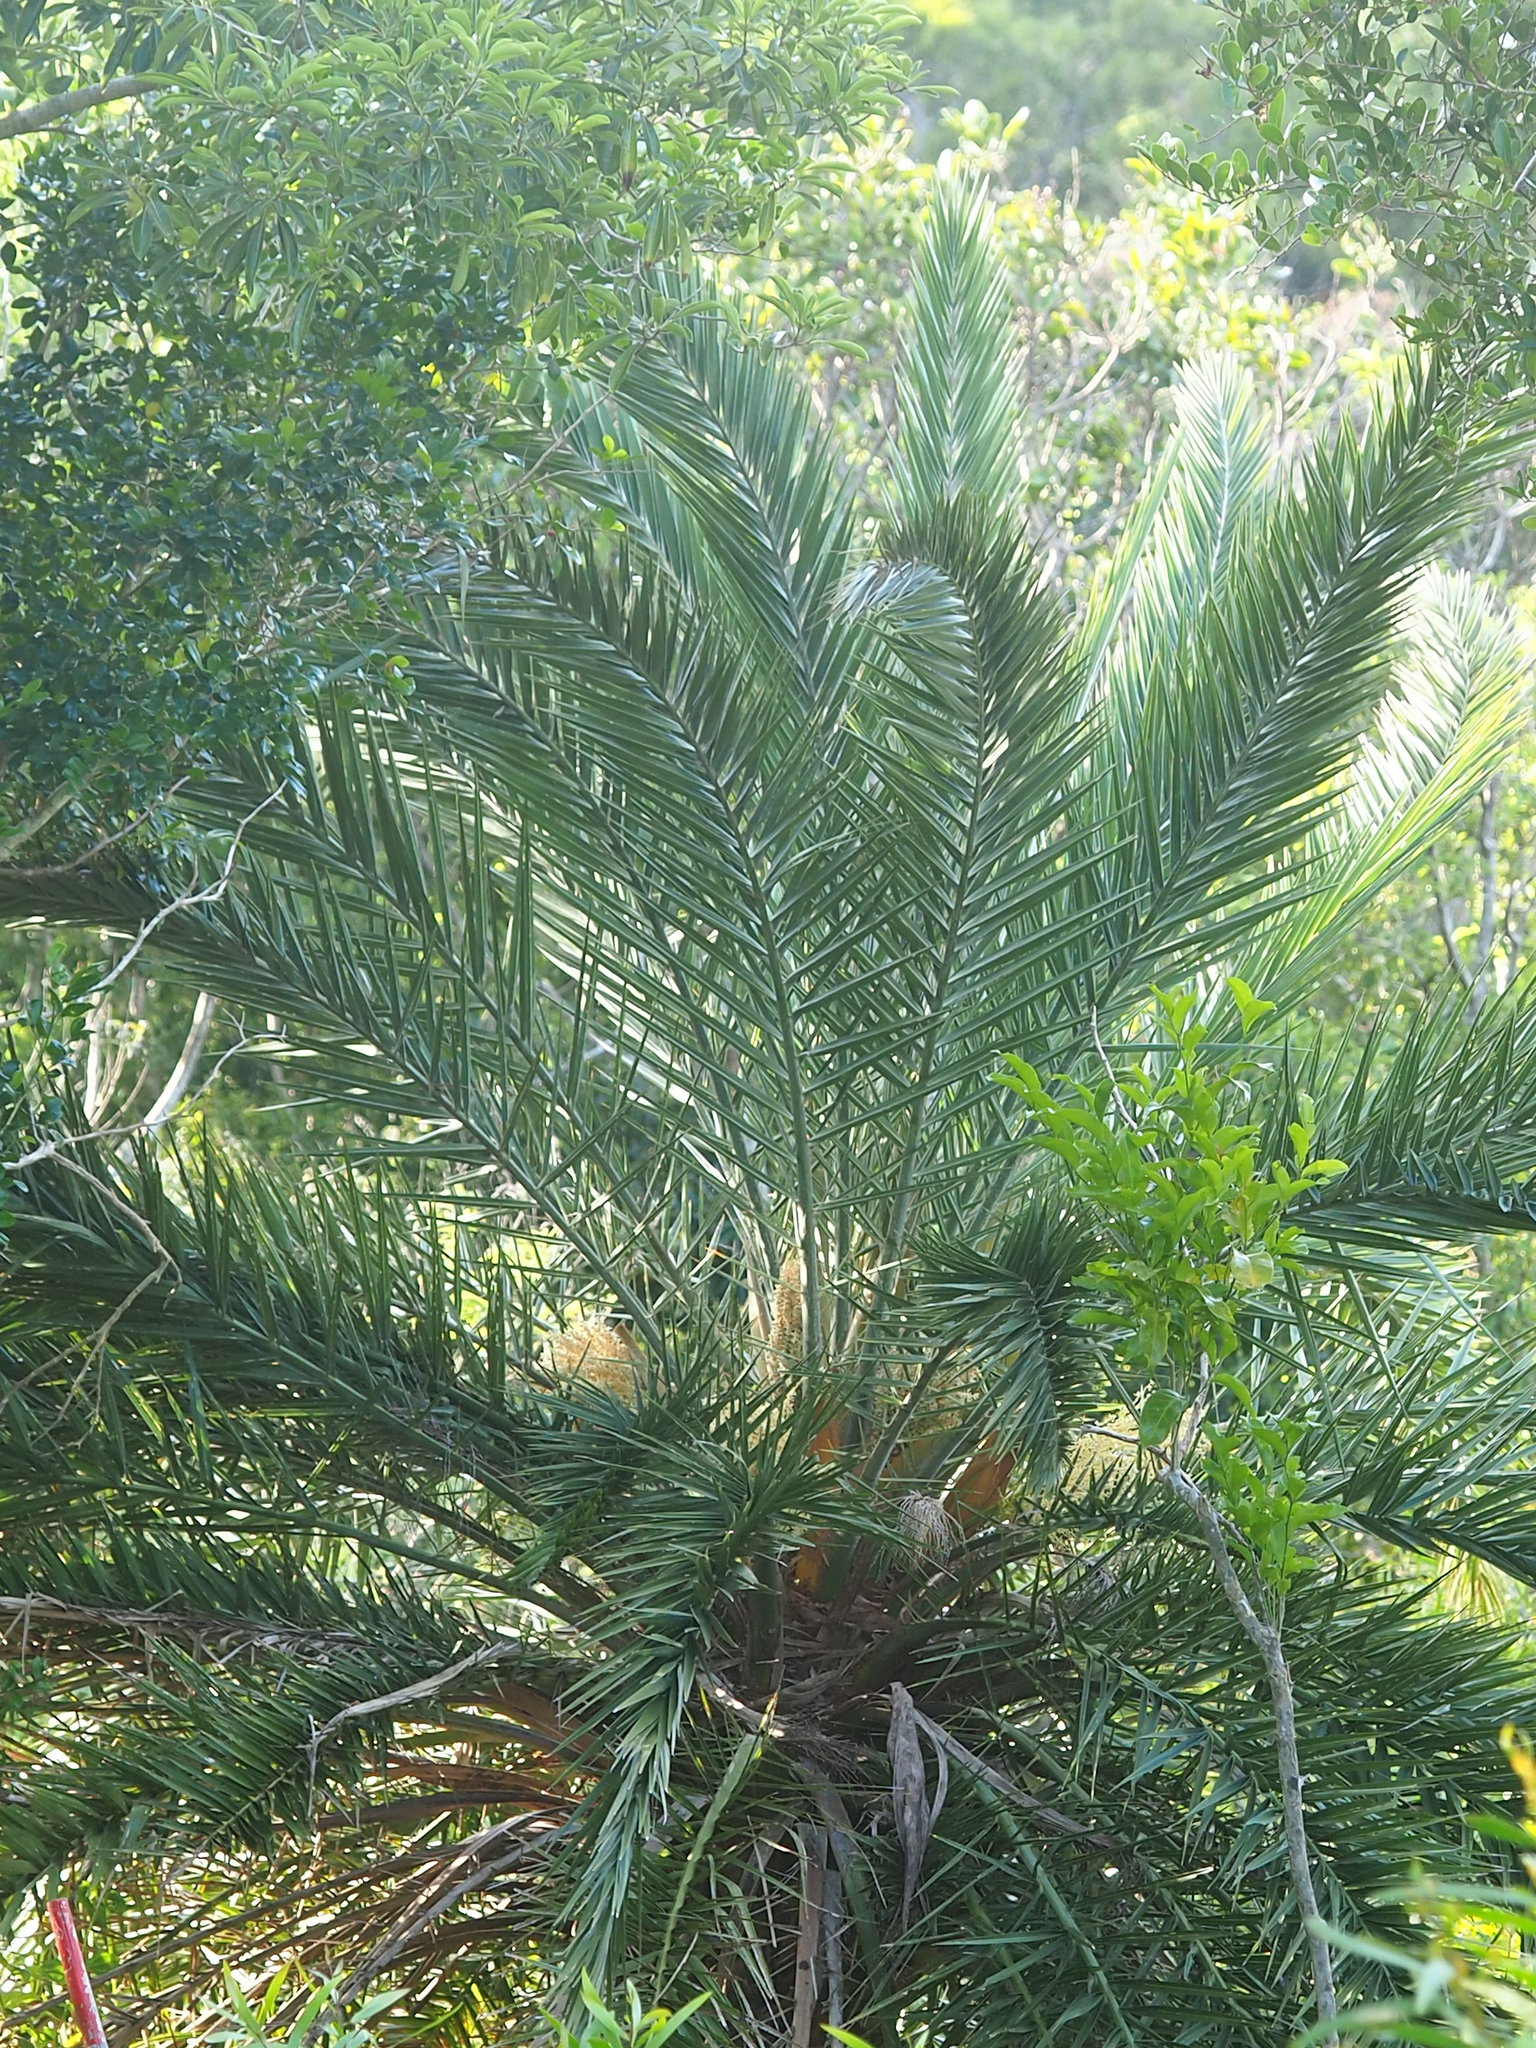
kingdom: Plantae
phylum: Tracheophyta
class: Liliopsida
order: Arecales
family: Arecaceae
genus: Phoenix
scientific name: Phoenix loureiroi
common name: Loureiro's palm
